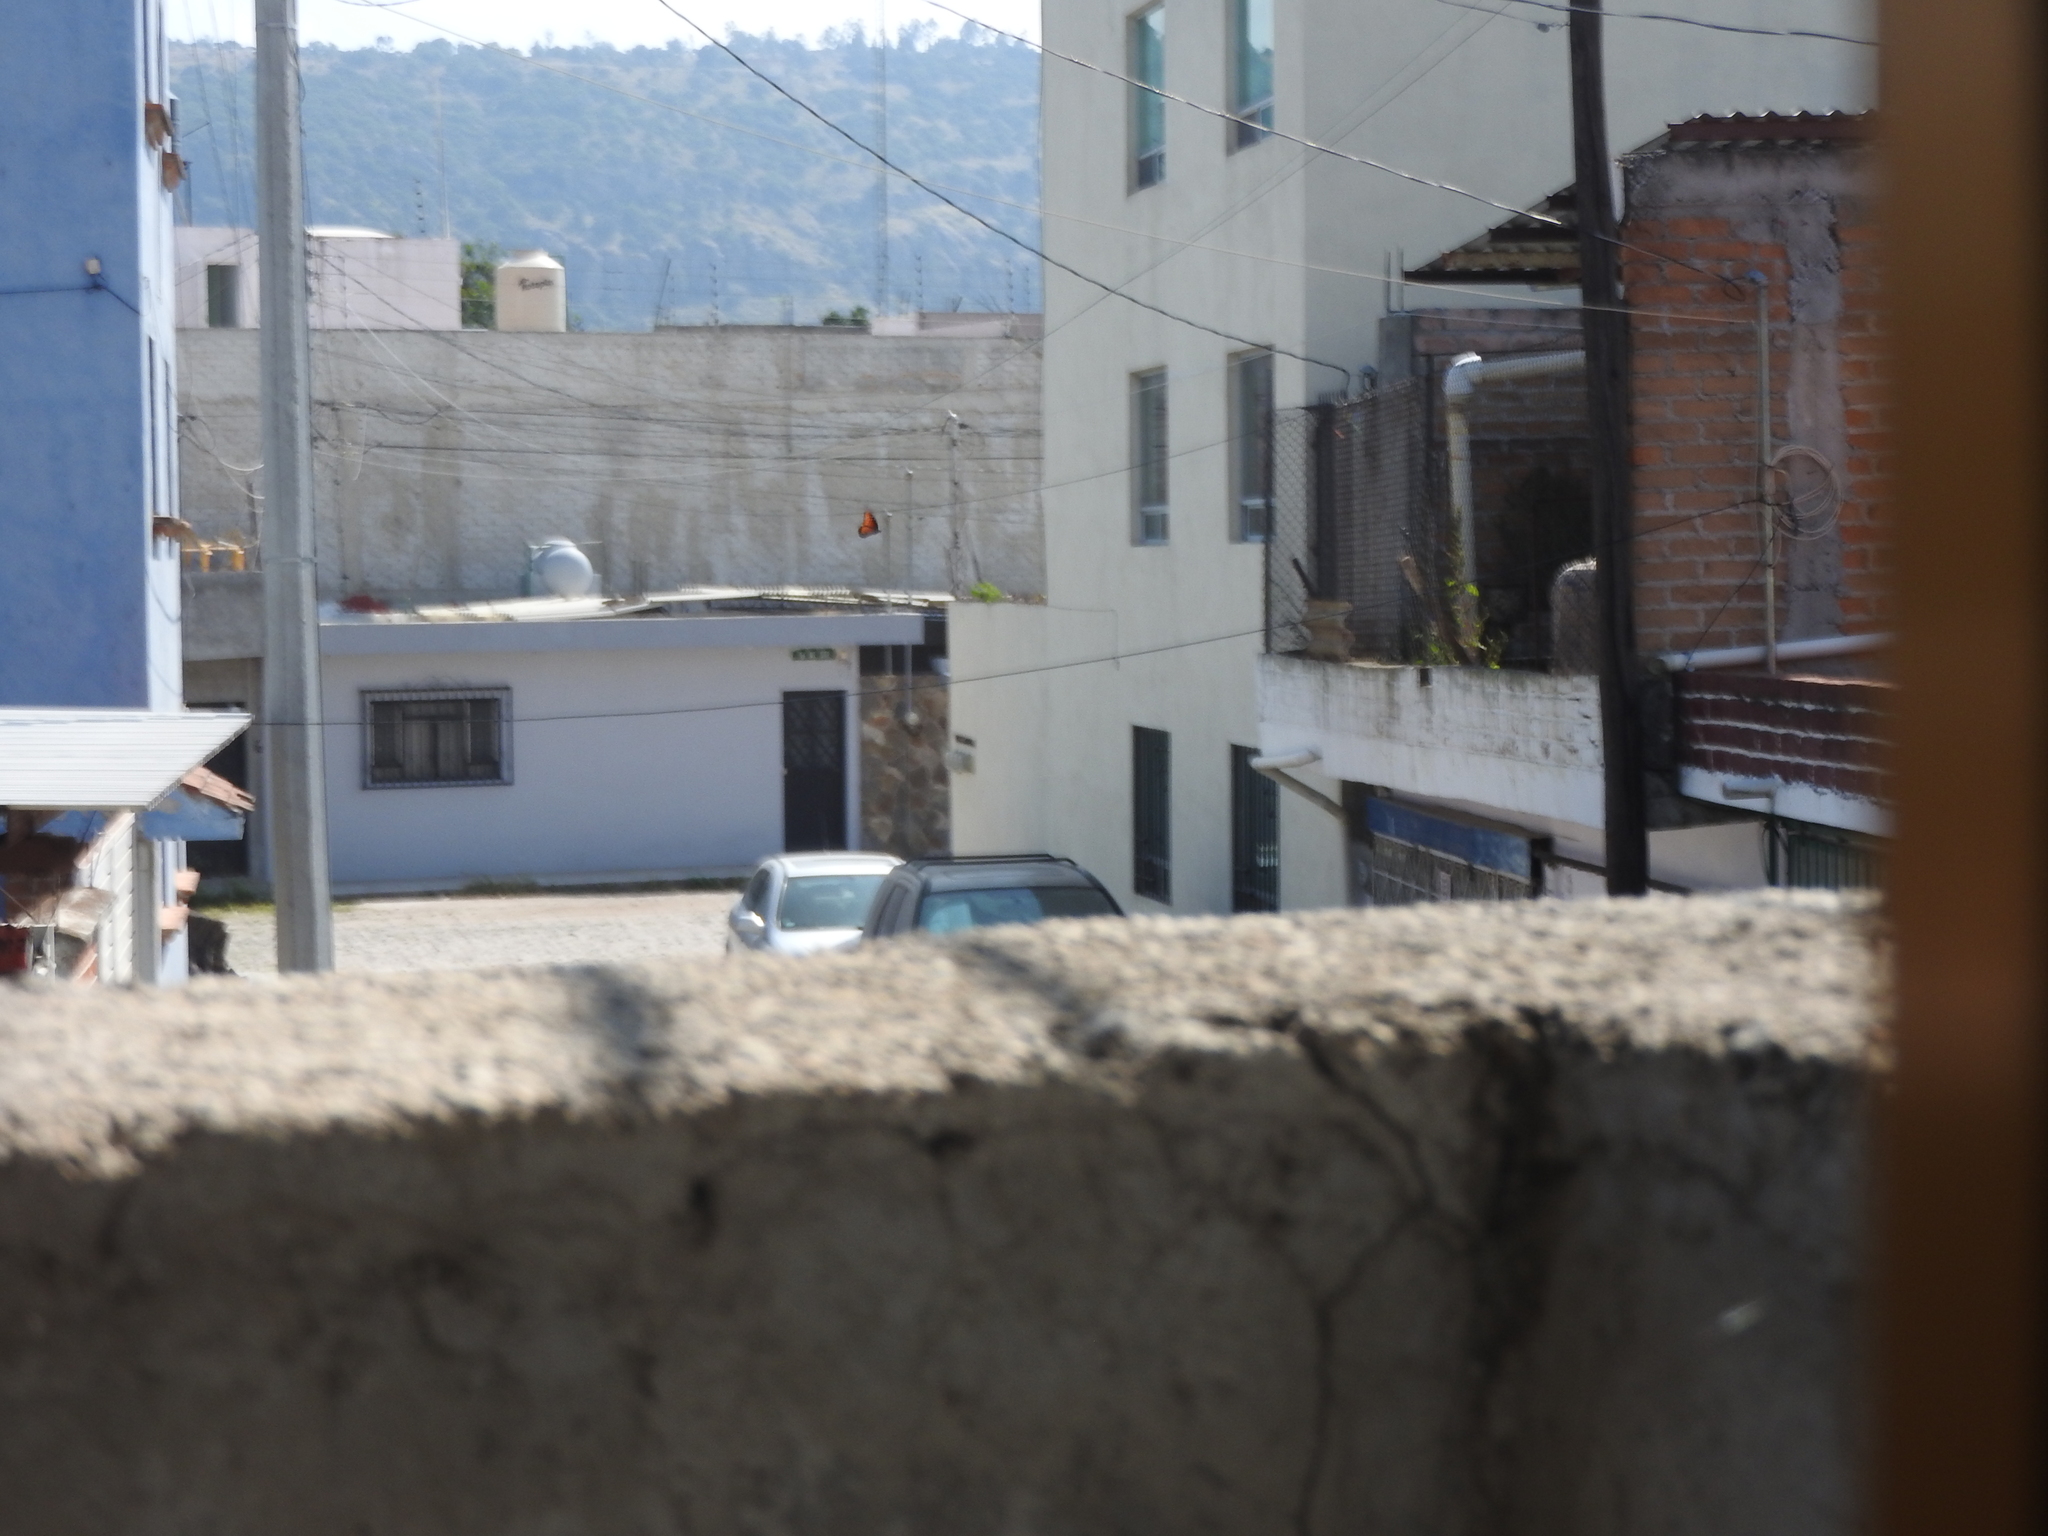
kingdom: Animalia
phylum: Arthropoda
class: Insecta
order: Lepidoptera
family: Nymphalidae
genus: Danaus
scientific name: Danaus gilippus
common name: Queen
